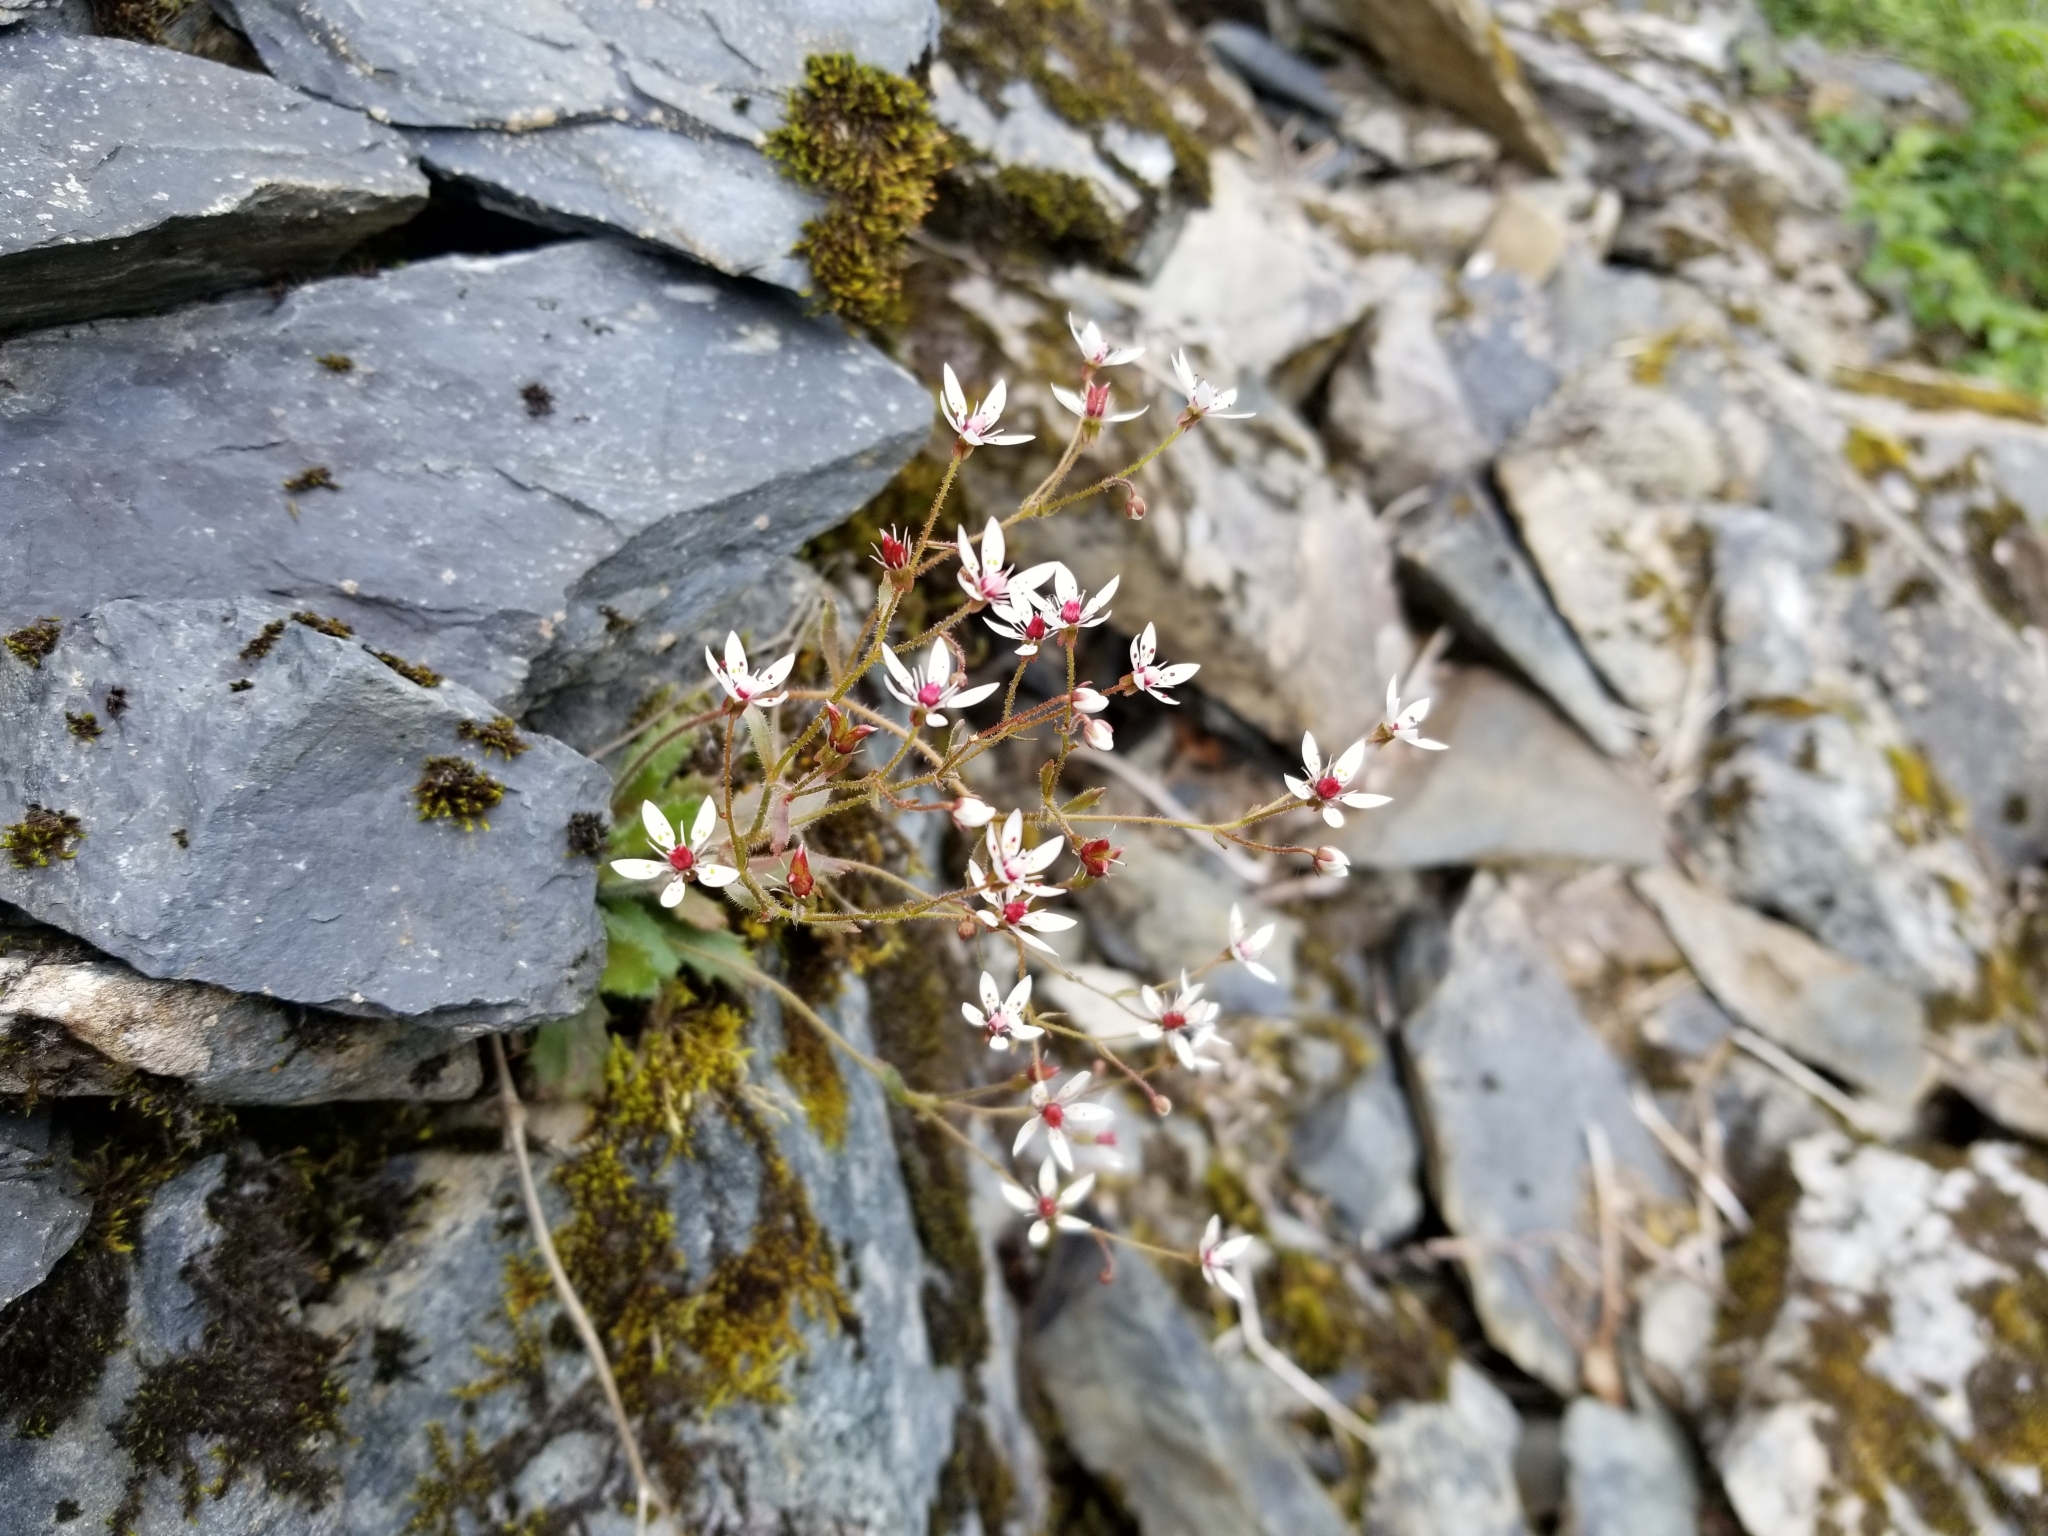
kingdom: Plantae
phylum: Tracheophyta
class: Magnoliopsida
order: Saxifragales
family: Saxifragaceae
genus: Micranthes
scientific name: Micranthes ferruginea
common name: Rusty saxifrage
